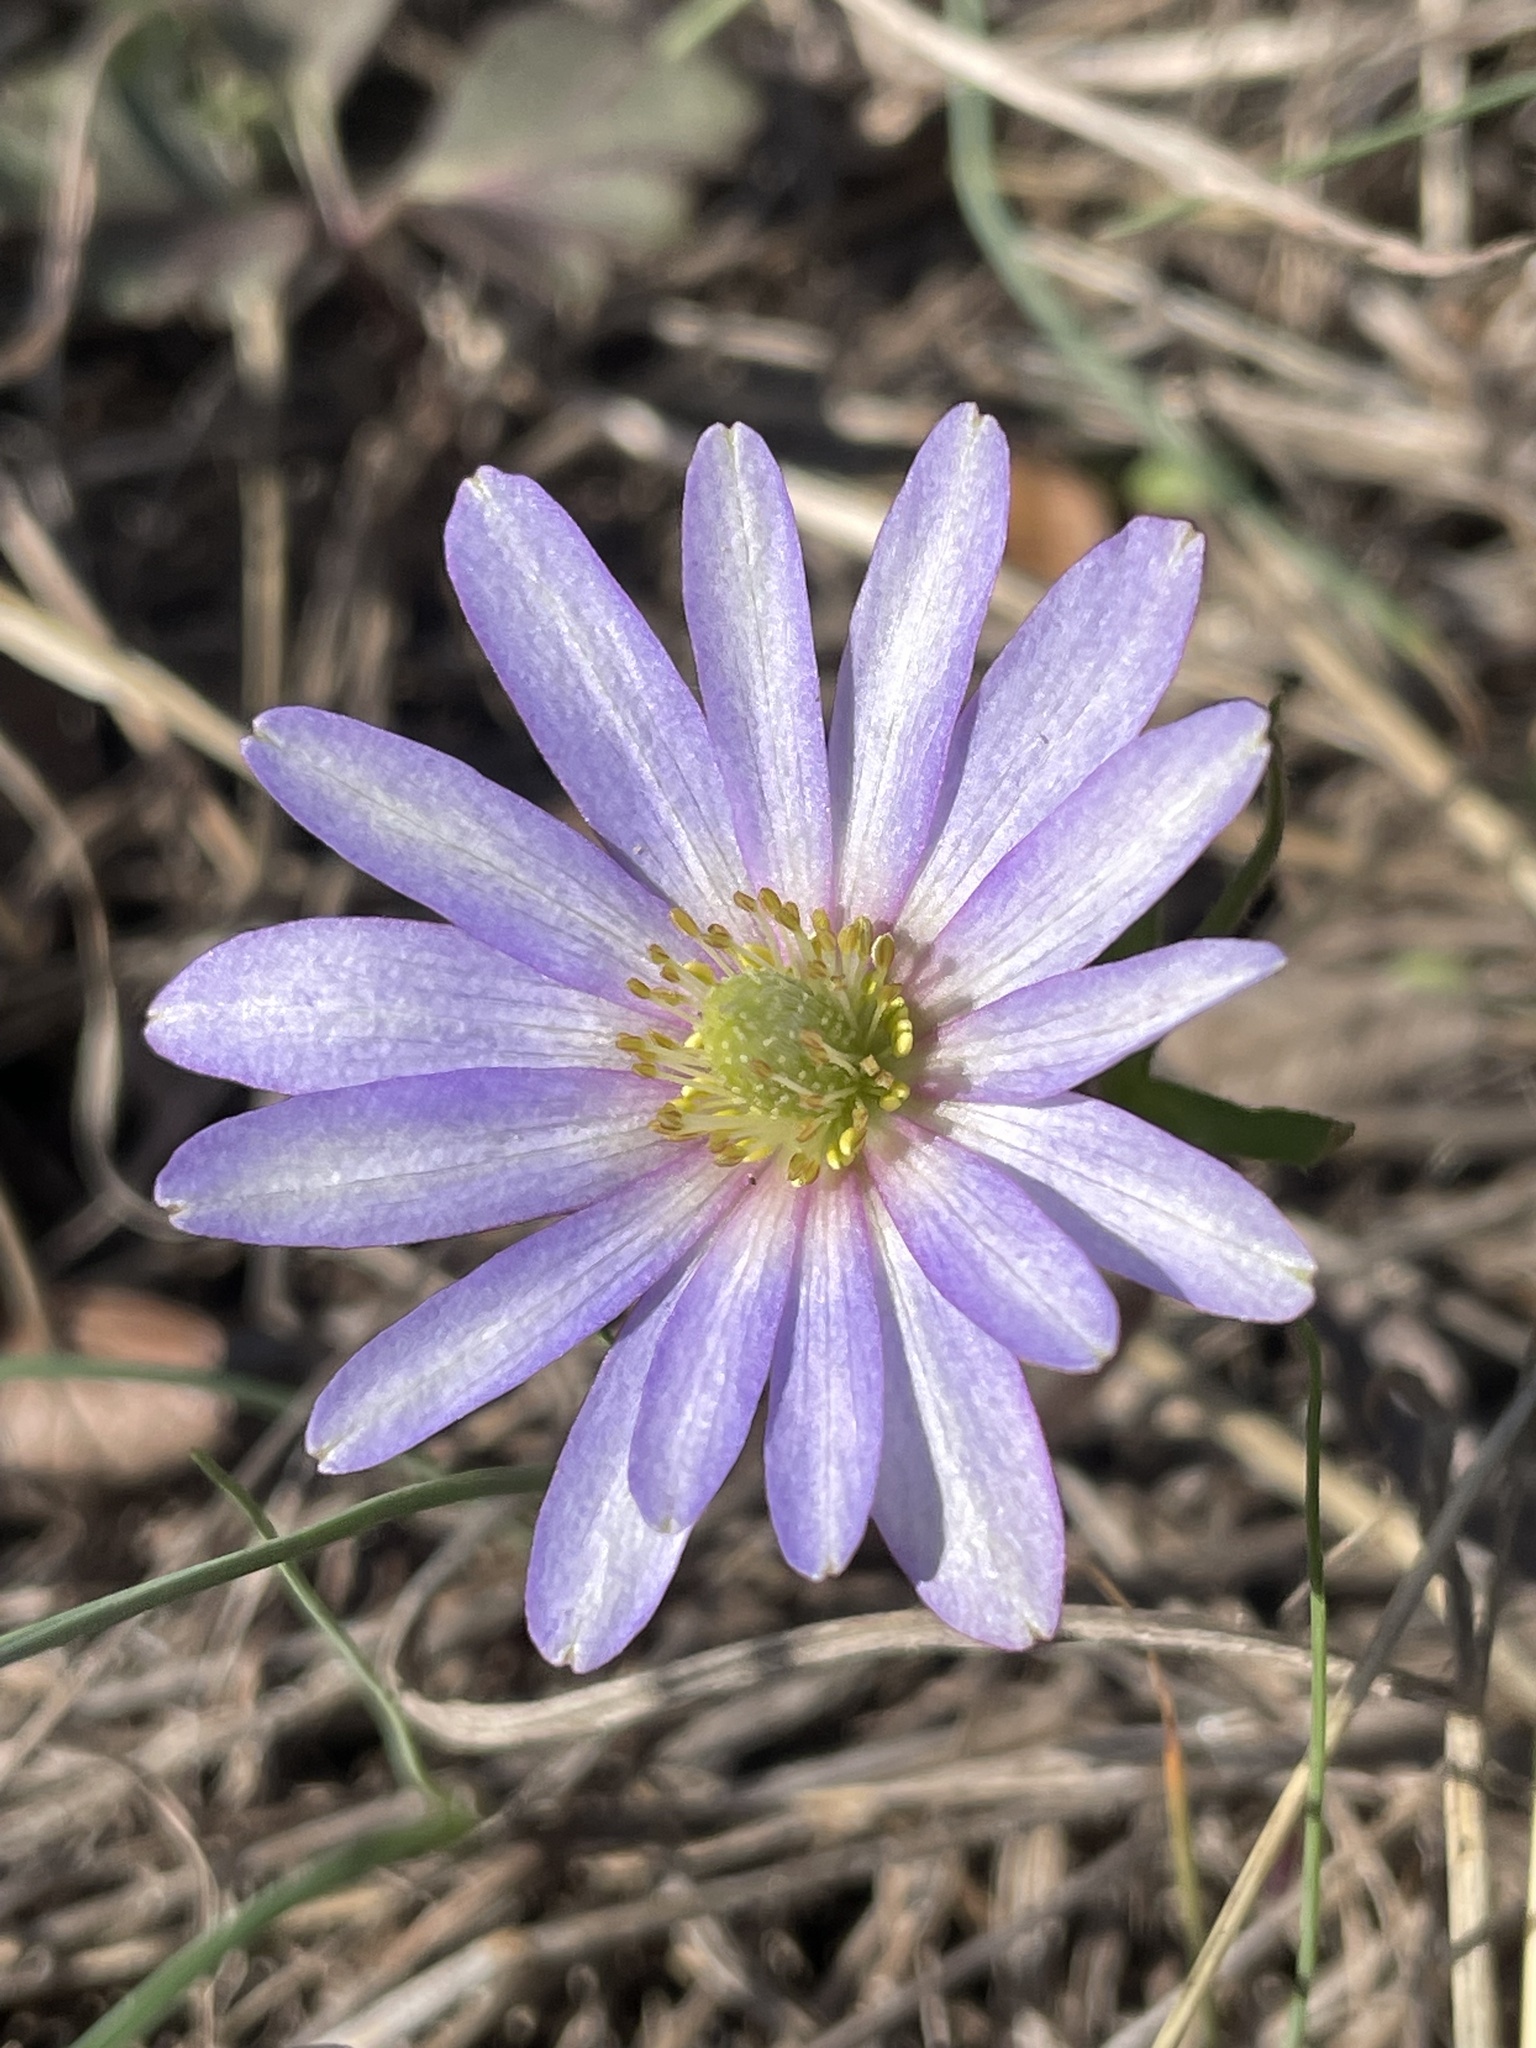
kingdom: Plantae
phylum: Tracheophyta
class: Magnoliopsida
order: Ranunculales
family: Ranunculaceae
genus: Anemone
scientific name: Anemone berlandieri
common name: Ten-petal anemone
